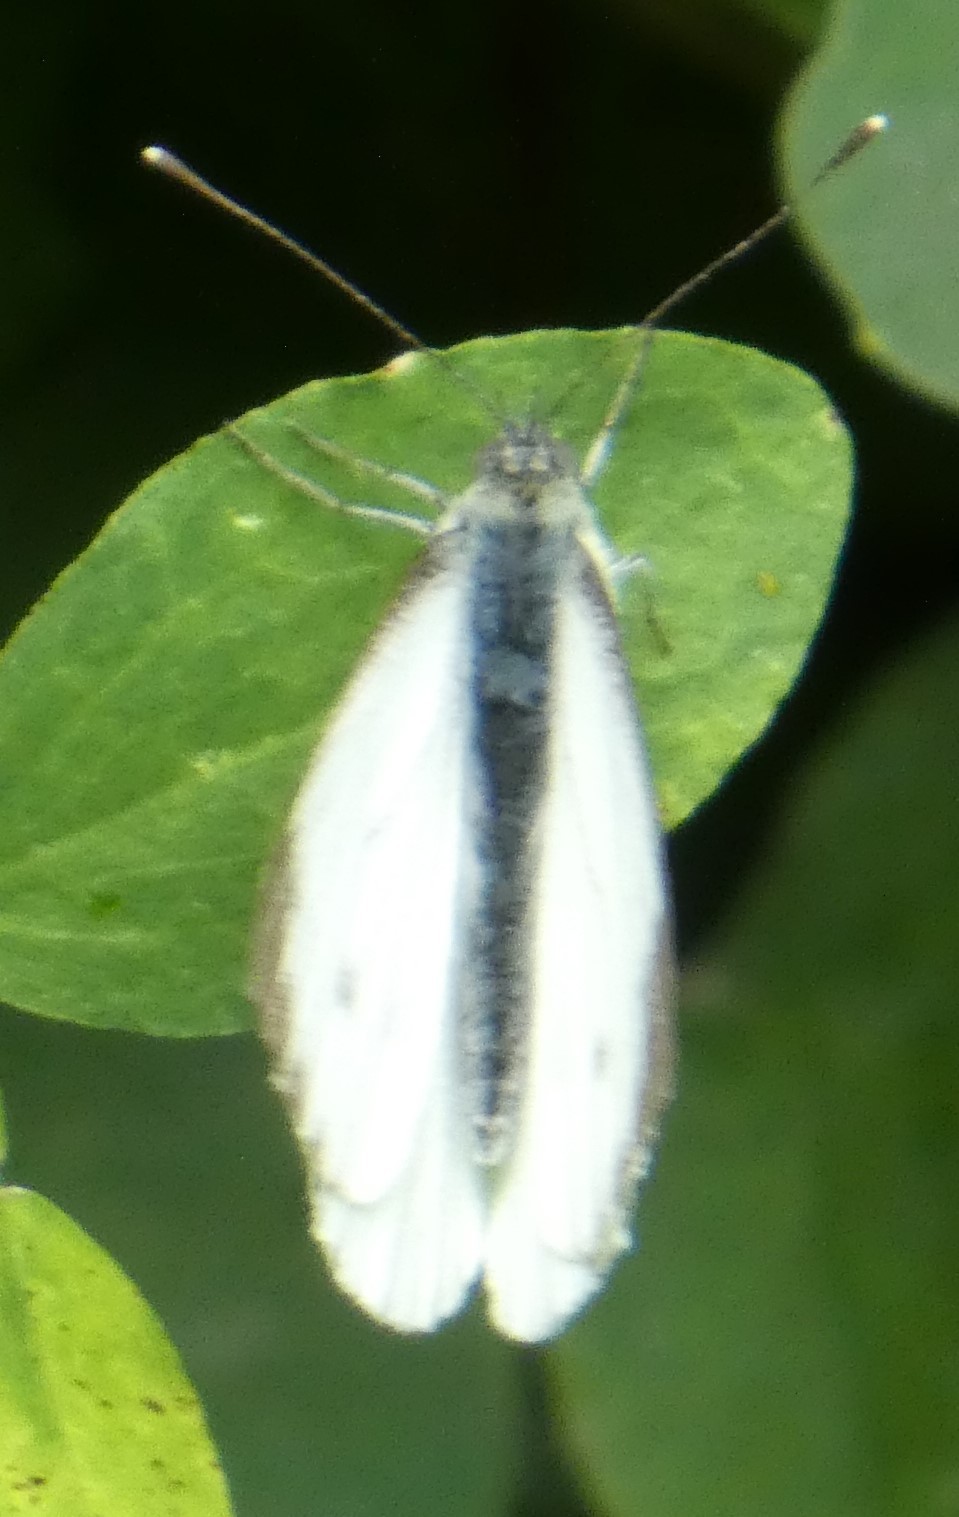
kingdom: Animalia
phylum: Arthropoda
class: Insecta
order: Lepidoptera
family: Pieridae
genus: Pieris
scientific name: Pieris napi
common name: Green-veined white
